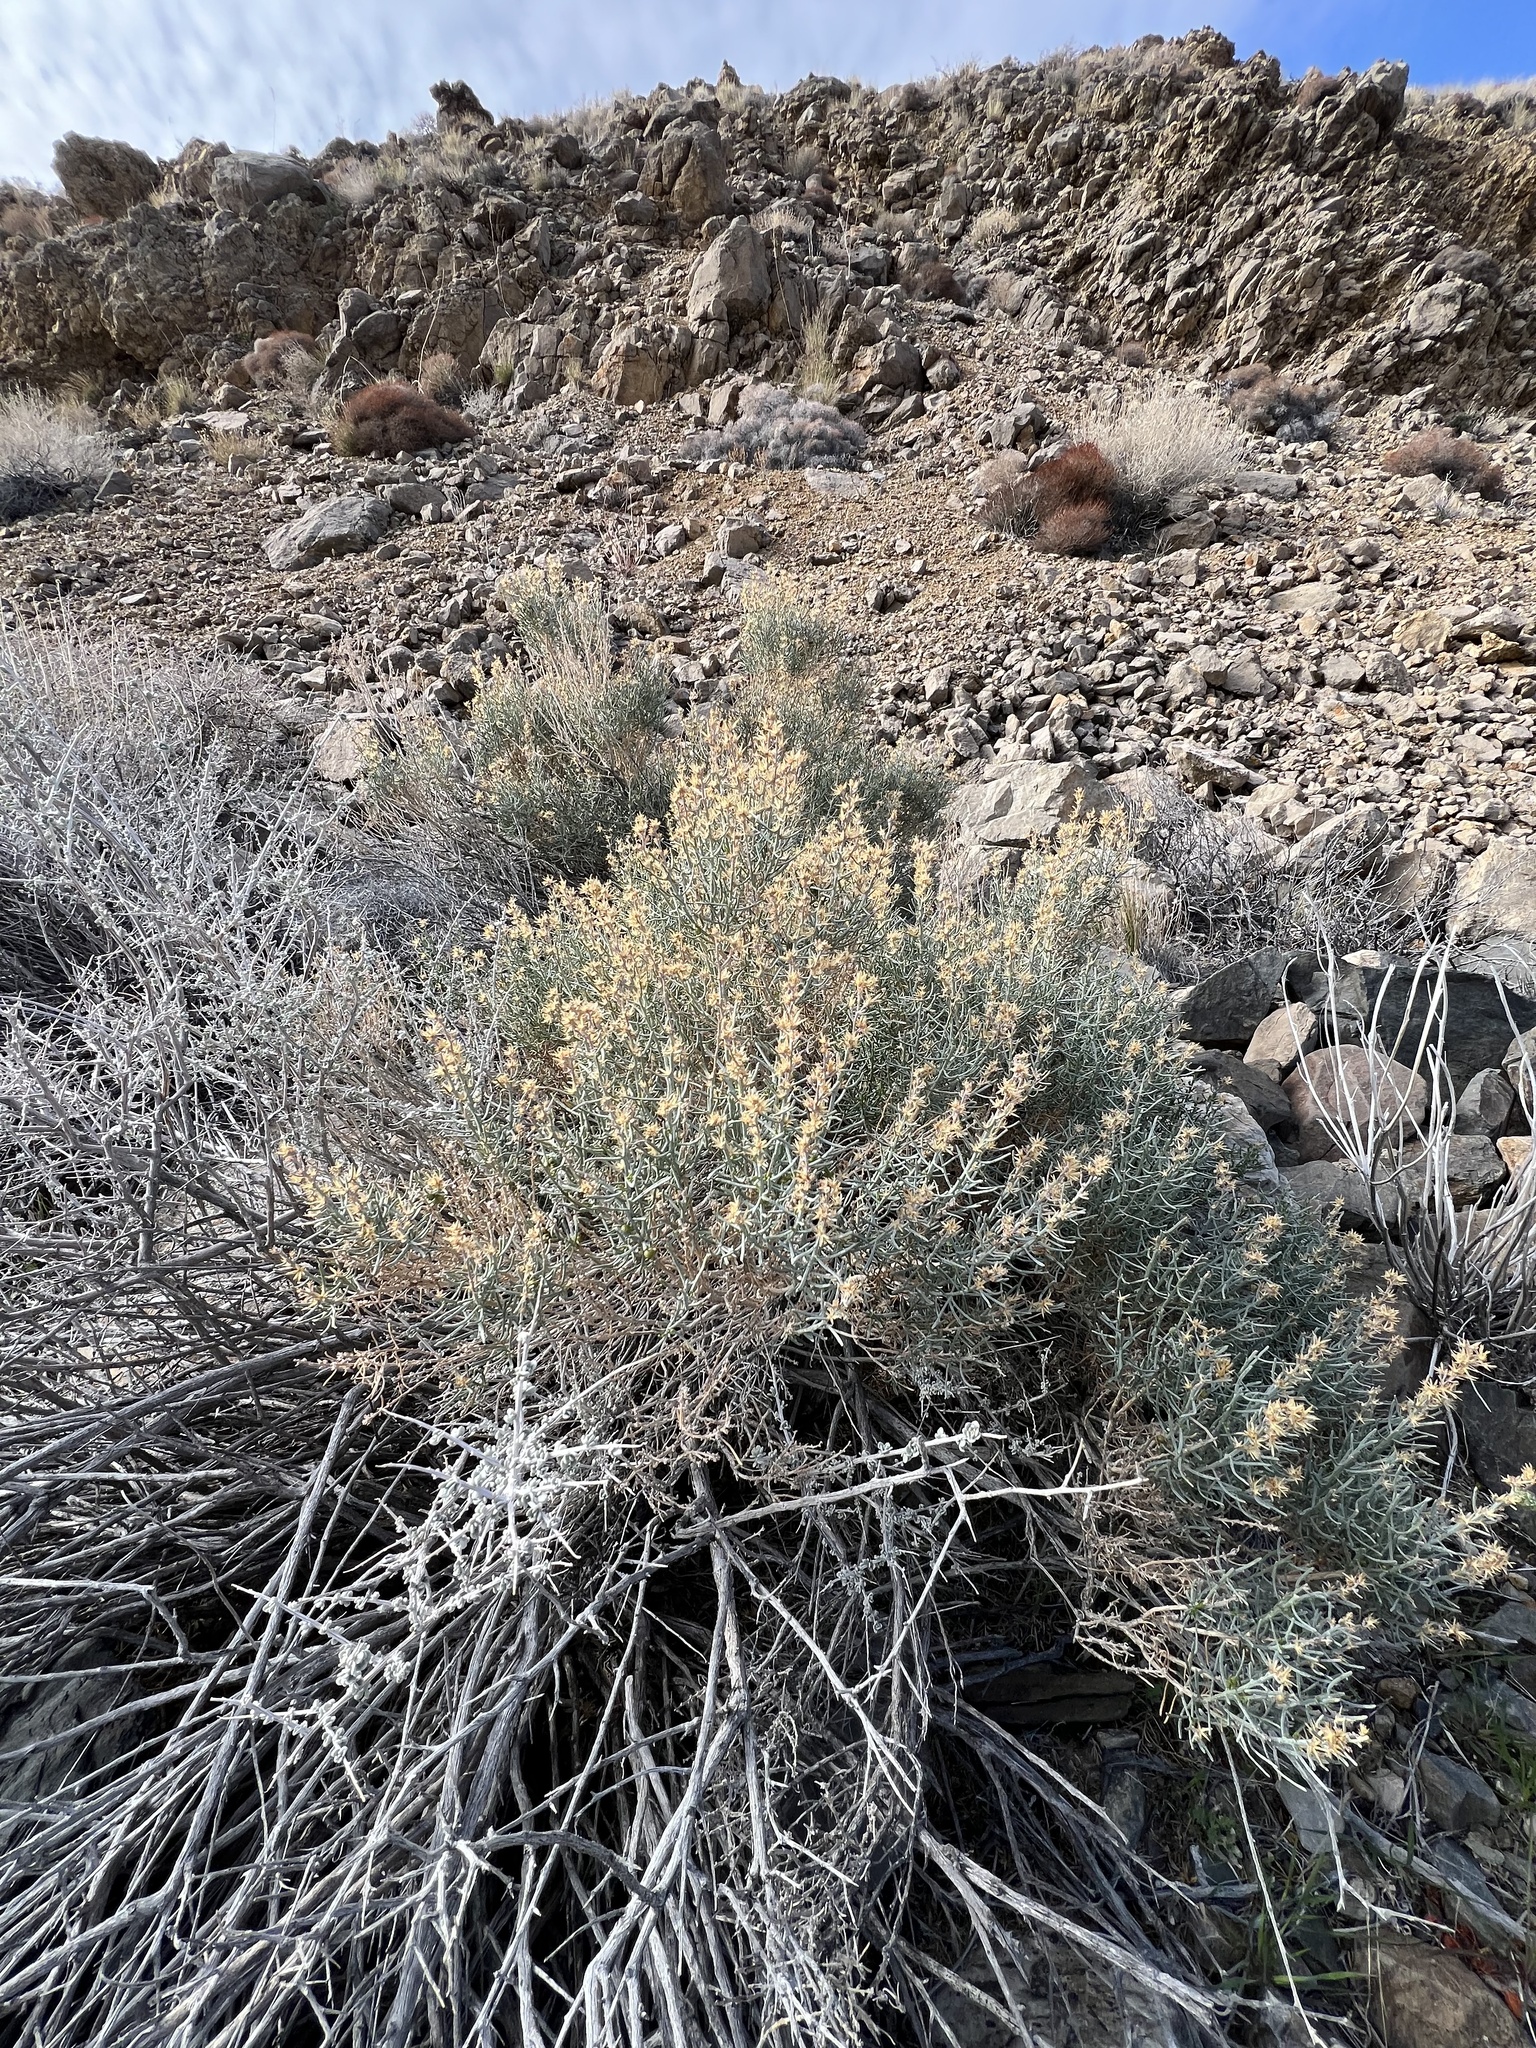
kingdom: Plantae
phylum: Tracheophyta
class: Magnoliopsida
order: Asterales
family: Asteraceae
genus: Ericameria
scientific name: Ericameria teretifolia
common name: Round-leaf rabbitbrush
